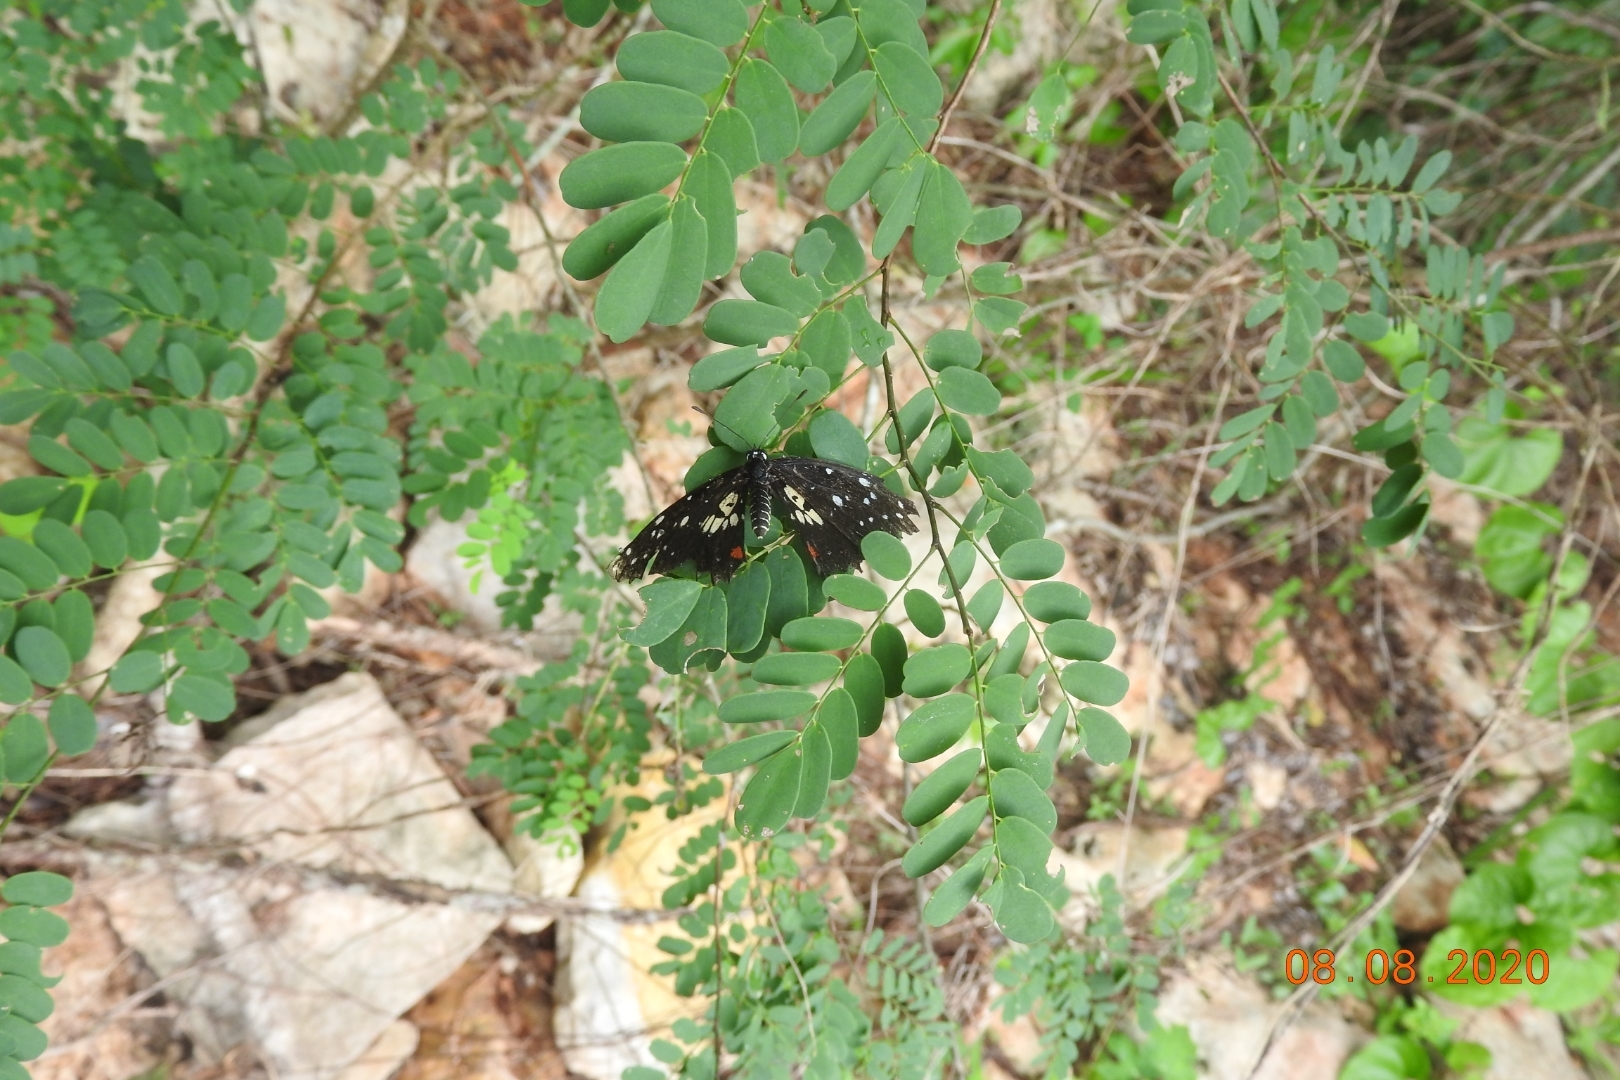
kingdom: Animalia
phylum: Arthropoda
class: Insecta
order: Lepidoptera
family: Nymphalidae
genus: Chlosyne
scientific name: Chlosyne erodyle
